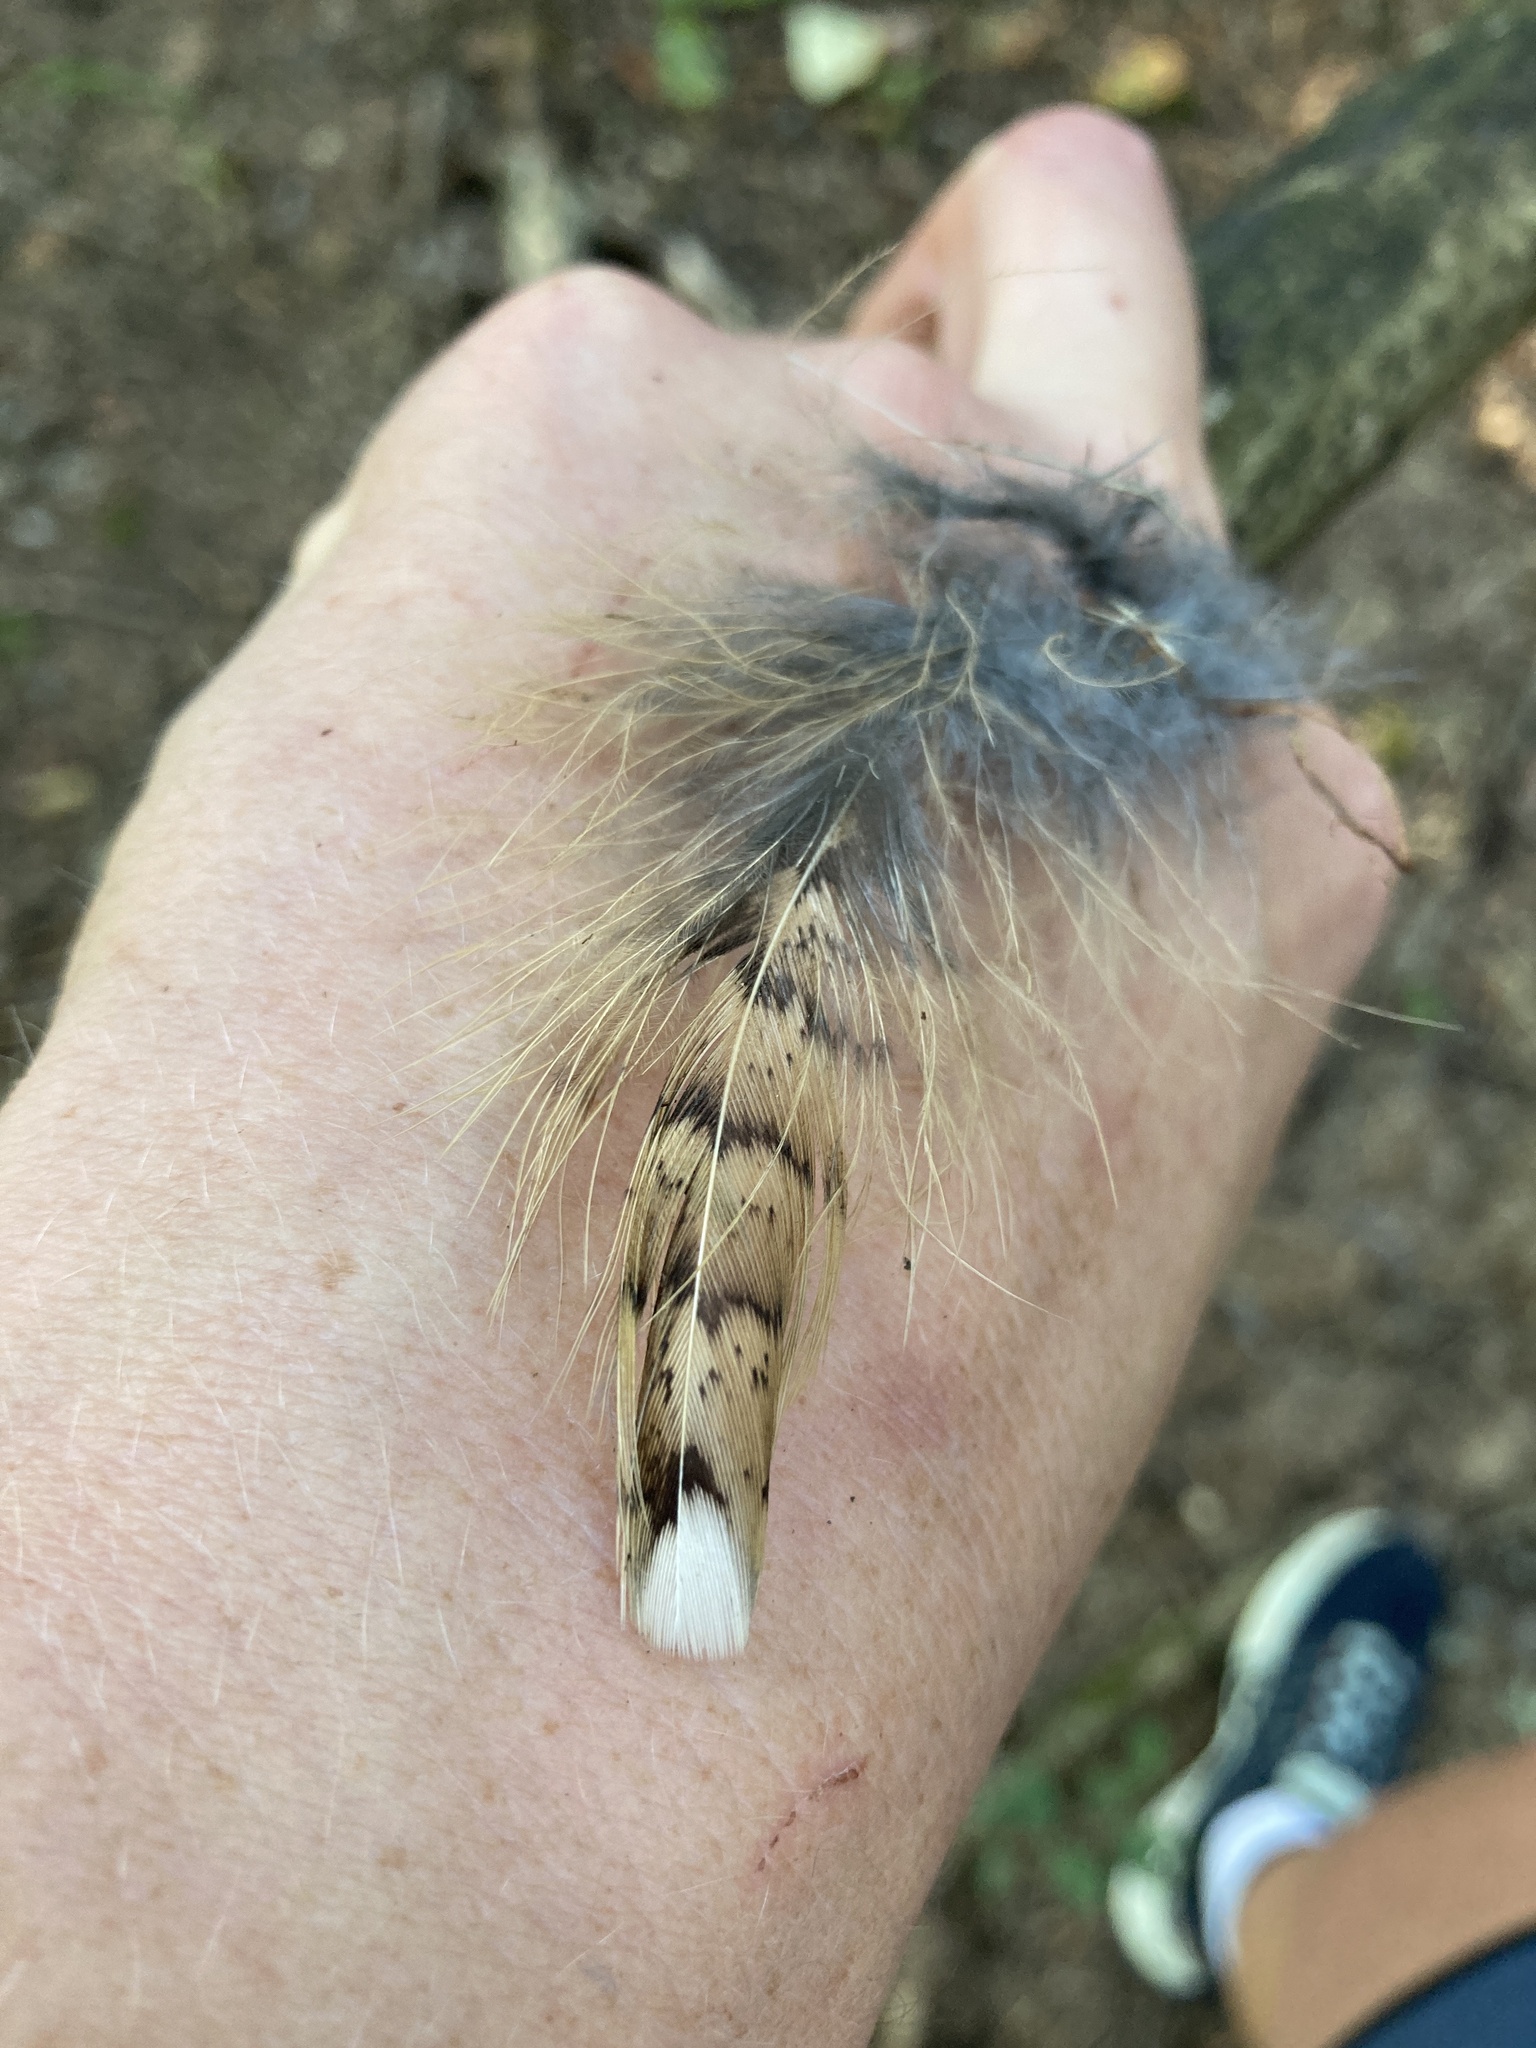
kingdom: Animalia
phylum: Chordata
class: Aves
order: Galliformes
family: Phasianidae
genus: Bonasa
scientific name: Bonasa umbellus
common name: Ruffed grouse
